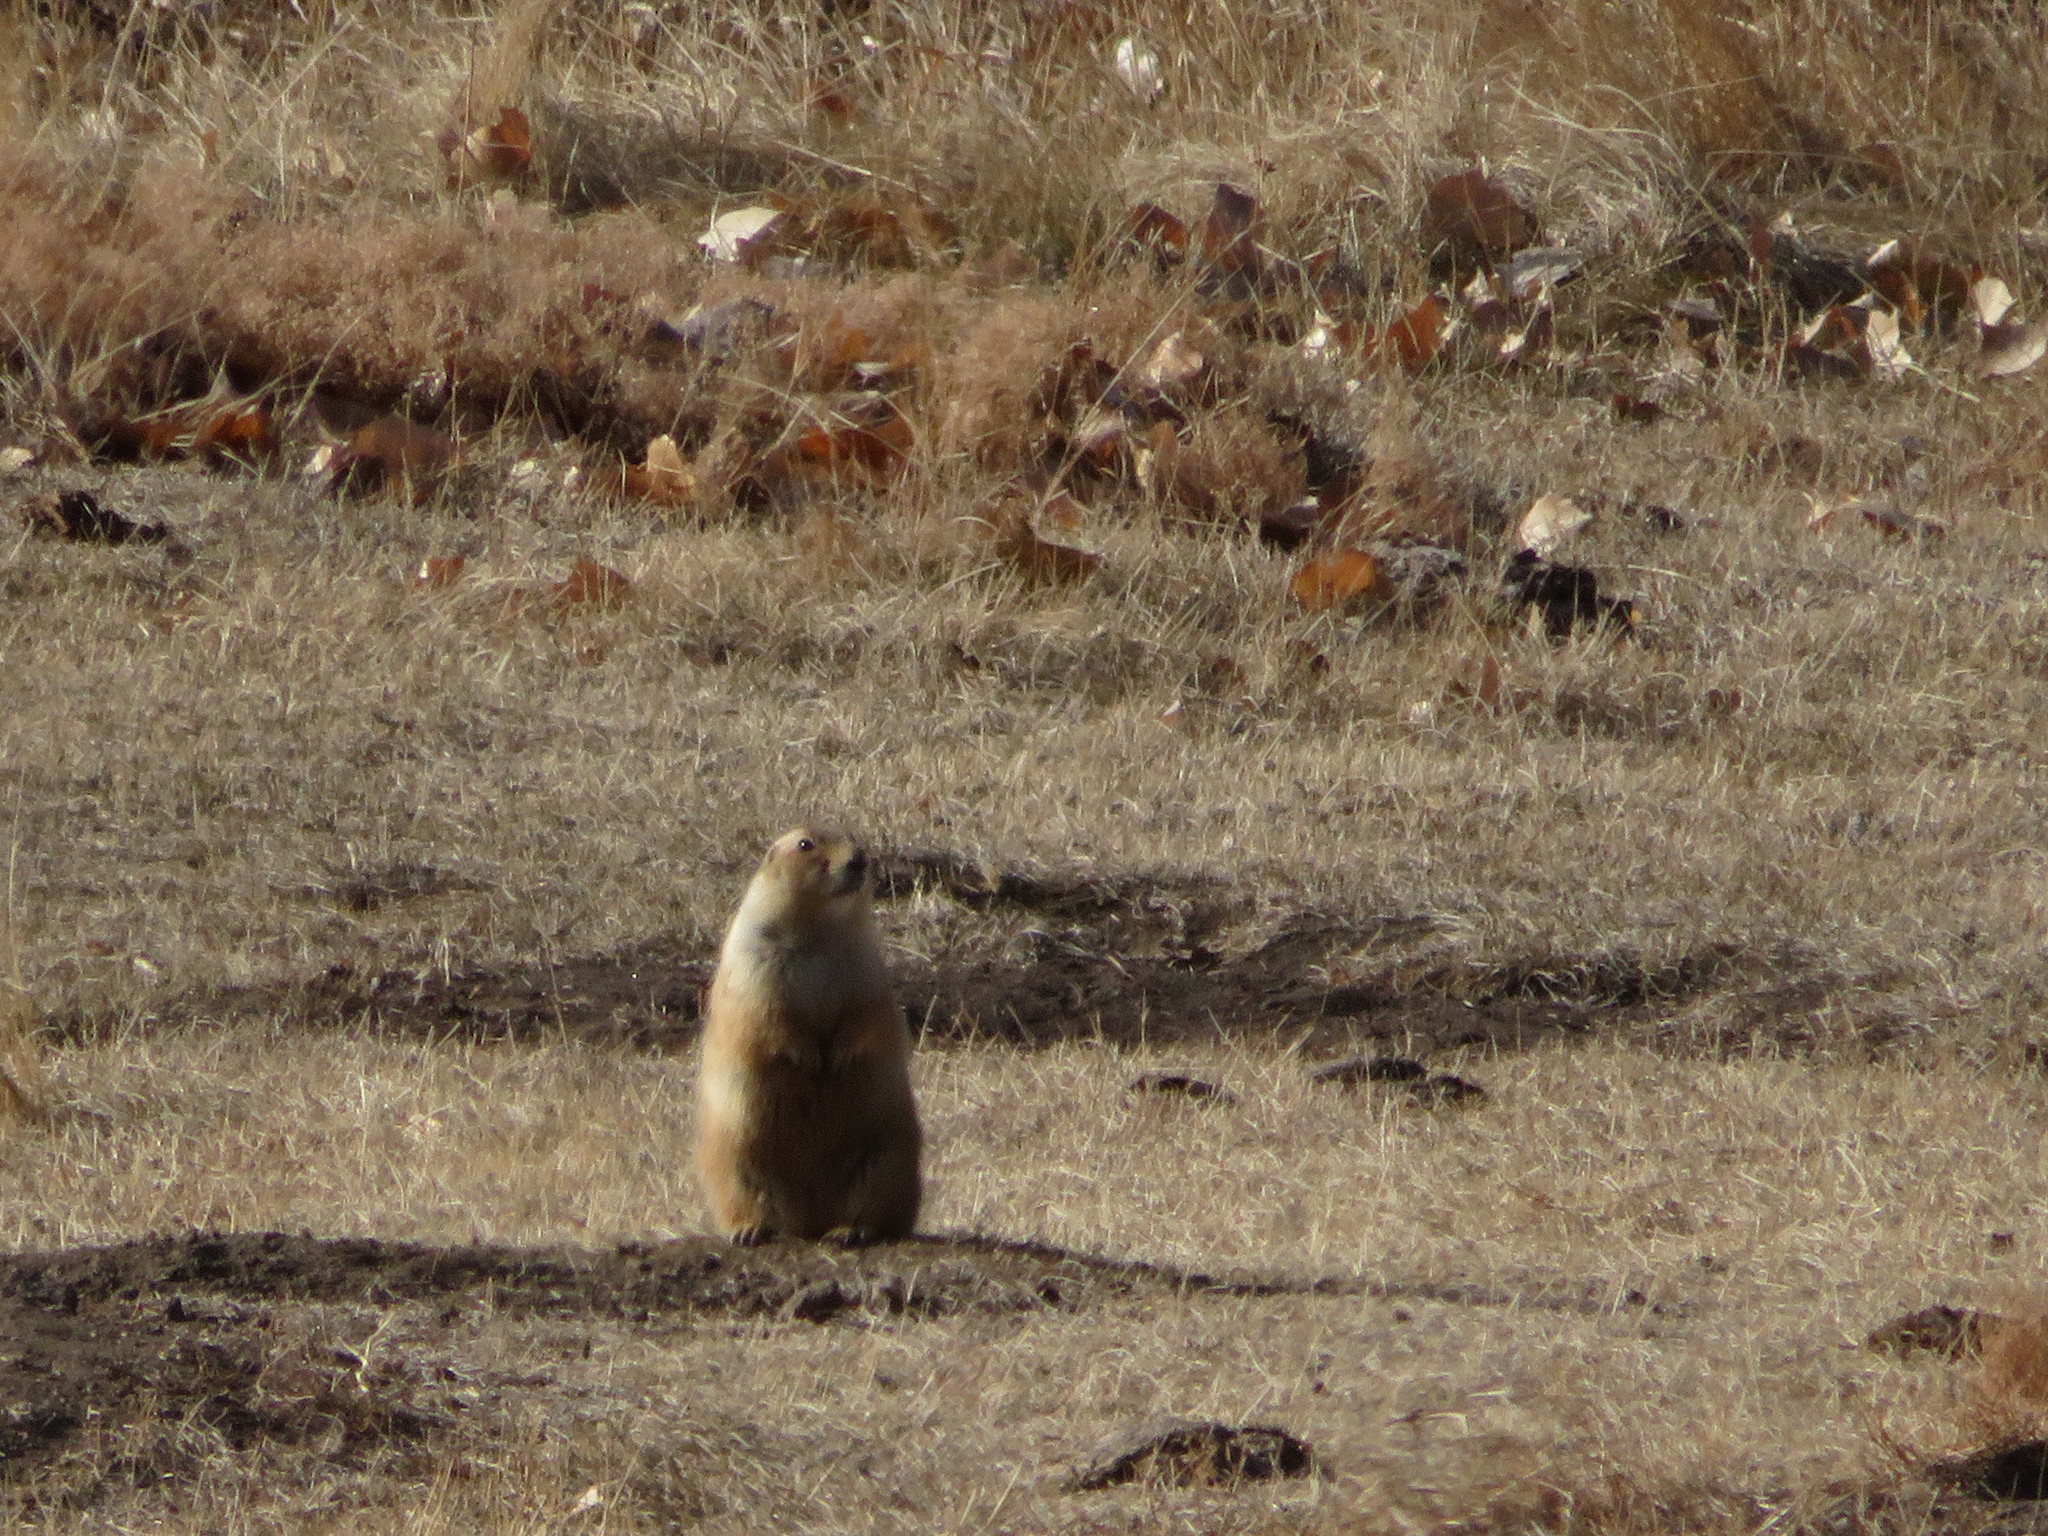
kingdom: Animalia
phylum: Chordata
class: Mammalia
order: Rodentia
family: Sciuridae
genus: Cynomys
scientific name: Cynomys ludovicianus
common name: Black-tailed prairie dog
